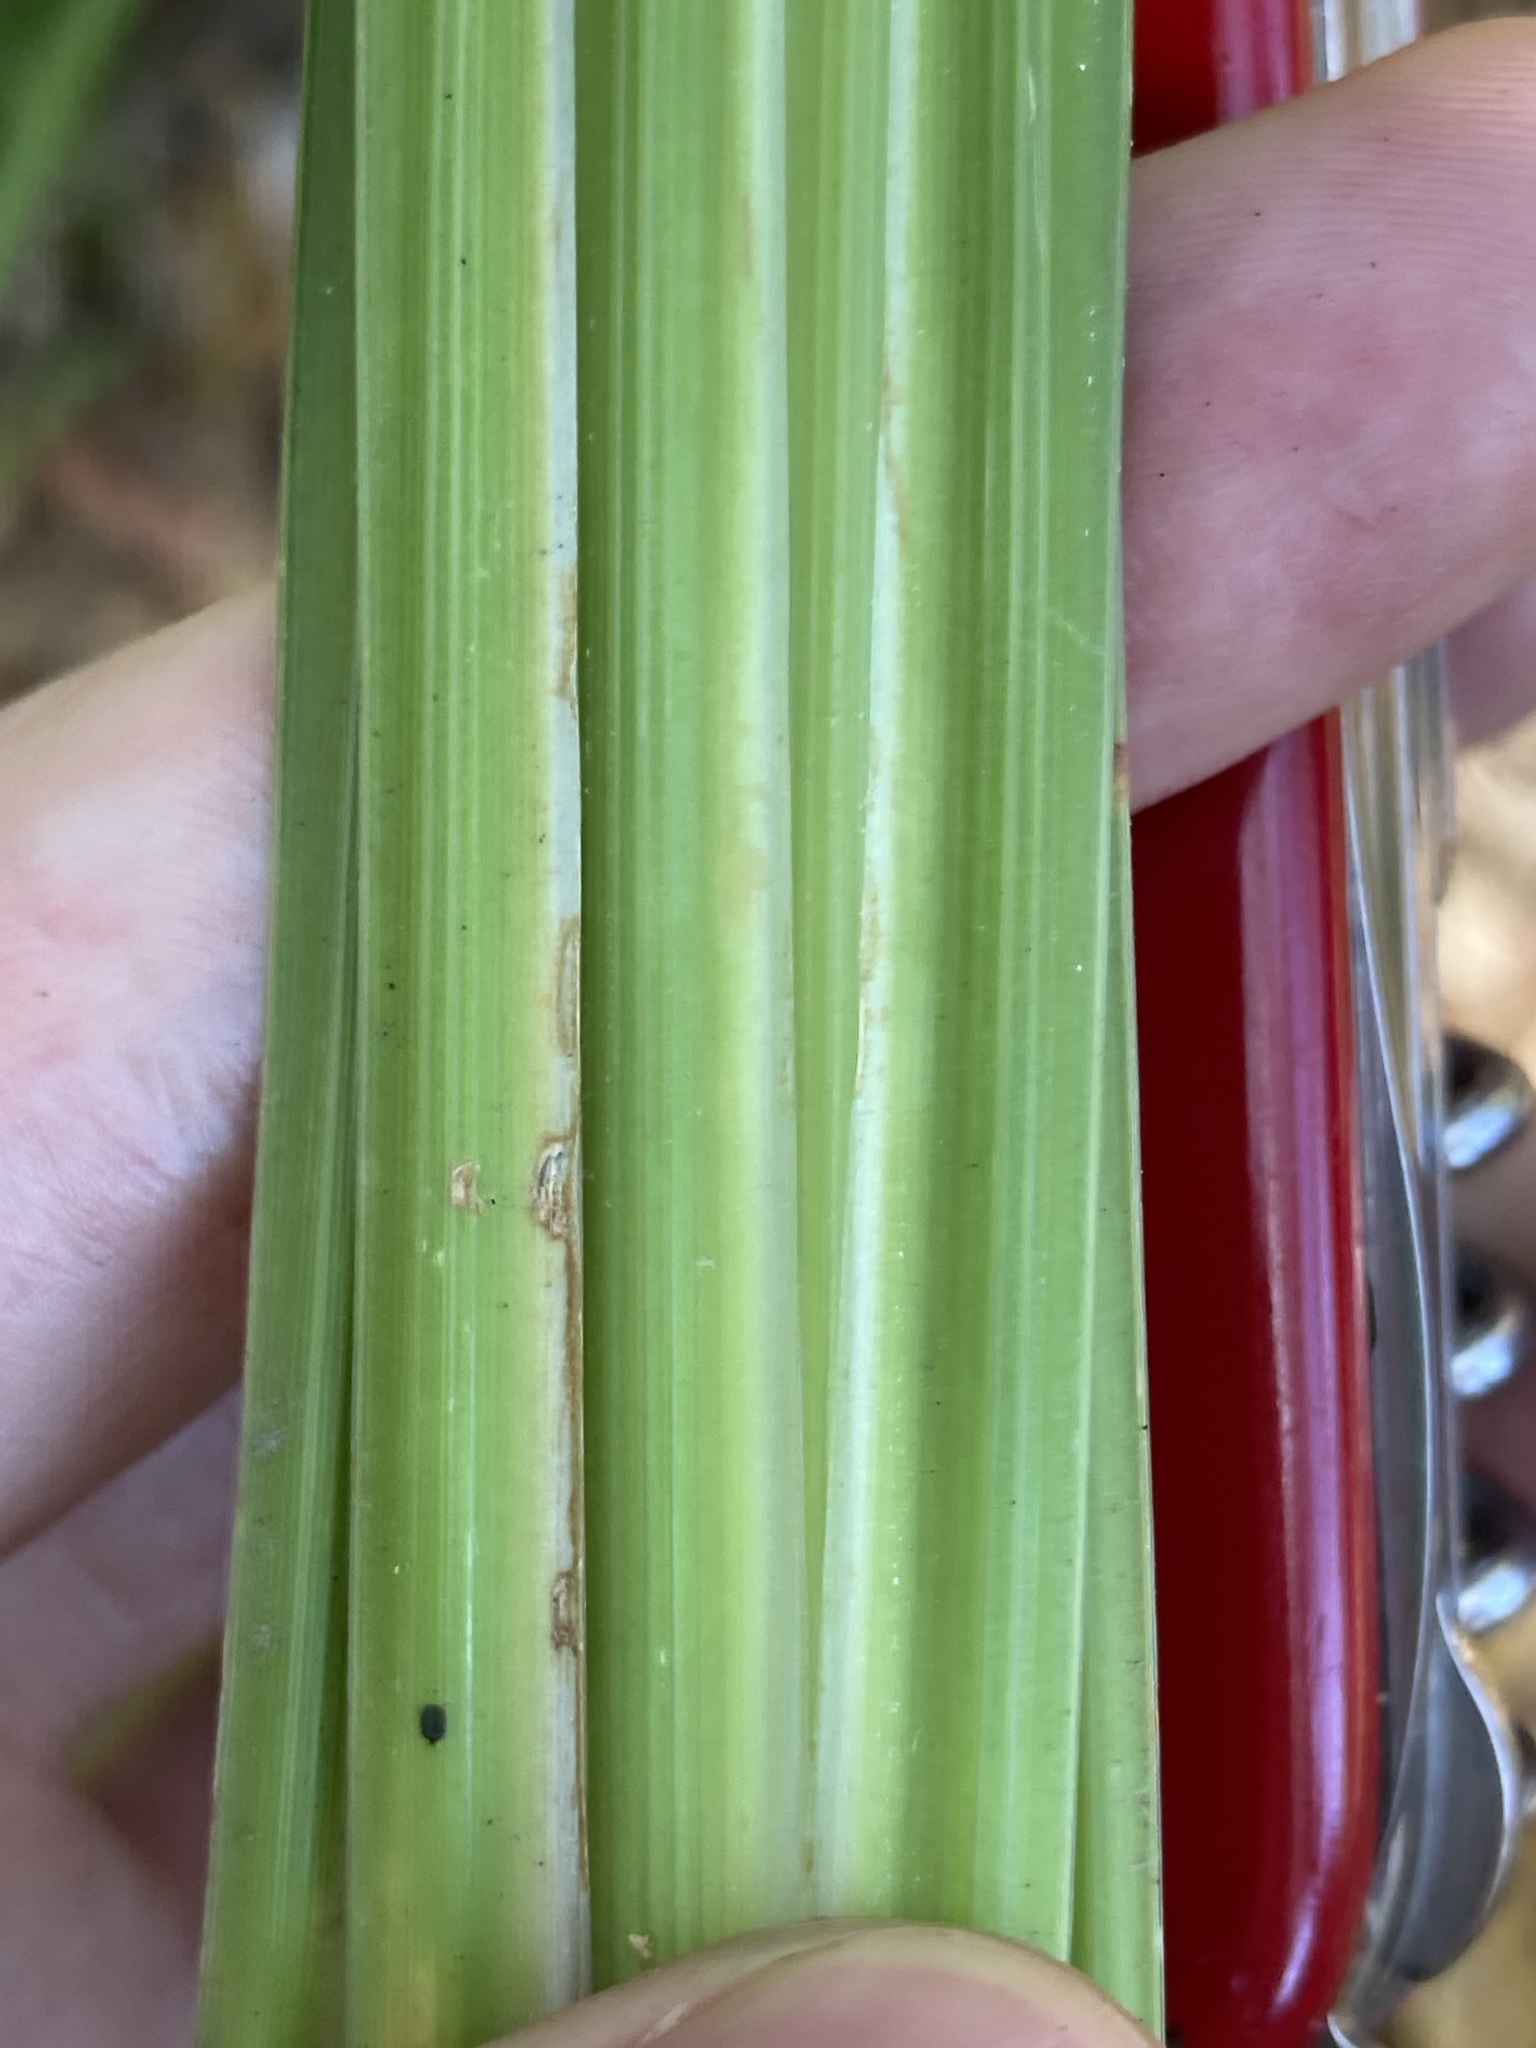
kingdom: Plantae
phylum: Tracheophyta
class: Liliopsida
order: Asparagales
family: Iridaceae
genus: Dietes
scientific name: Dietes bicolor
